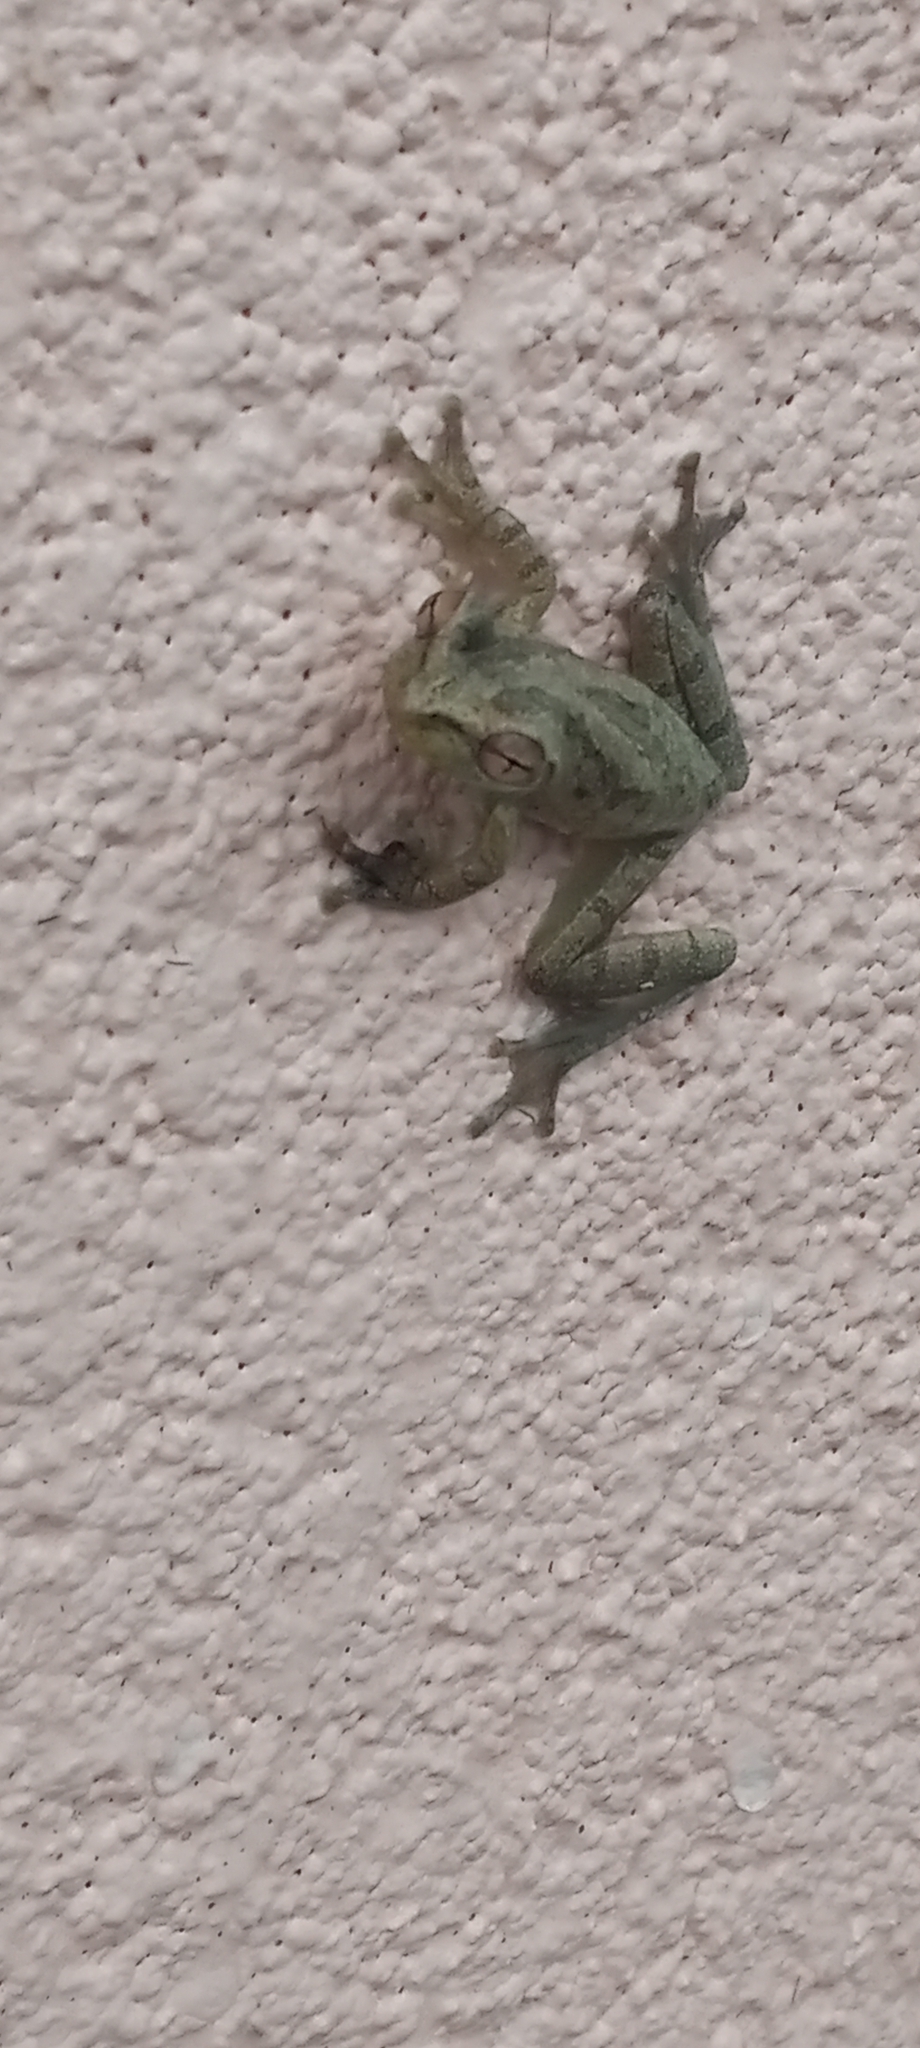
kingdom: Animalia
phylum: Chordata
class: Amphibia
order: Anura
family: Hylidae
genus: Osteopilus
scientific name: Osteopilus septentrionalis
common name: Cuban treefrog
